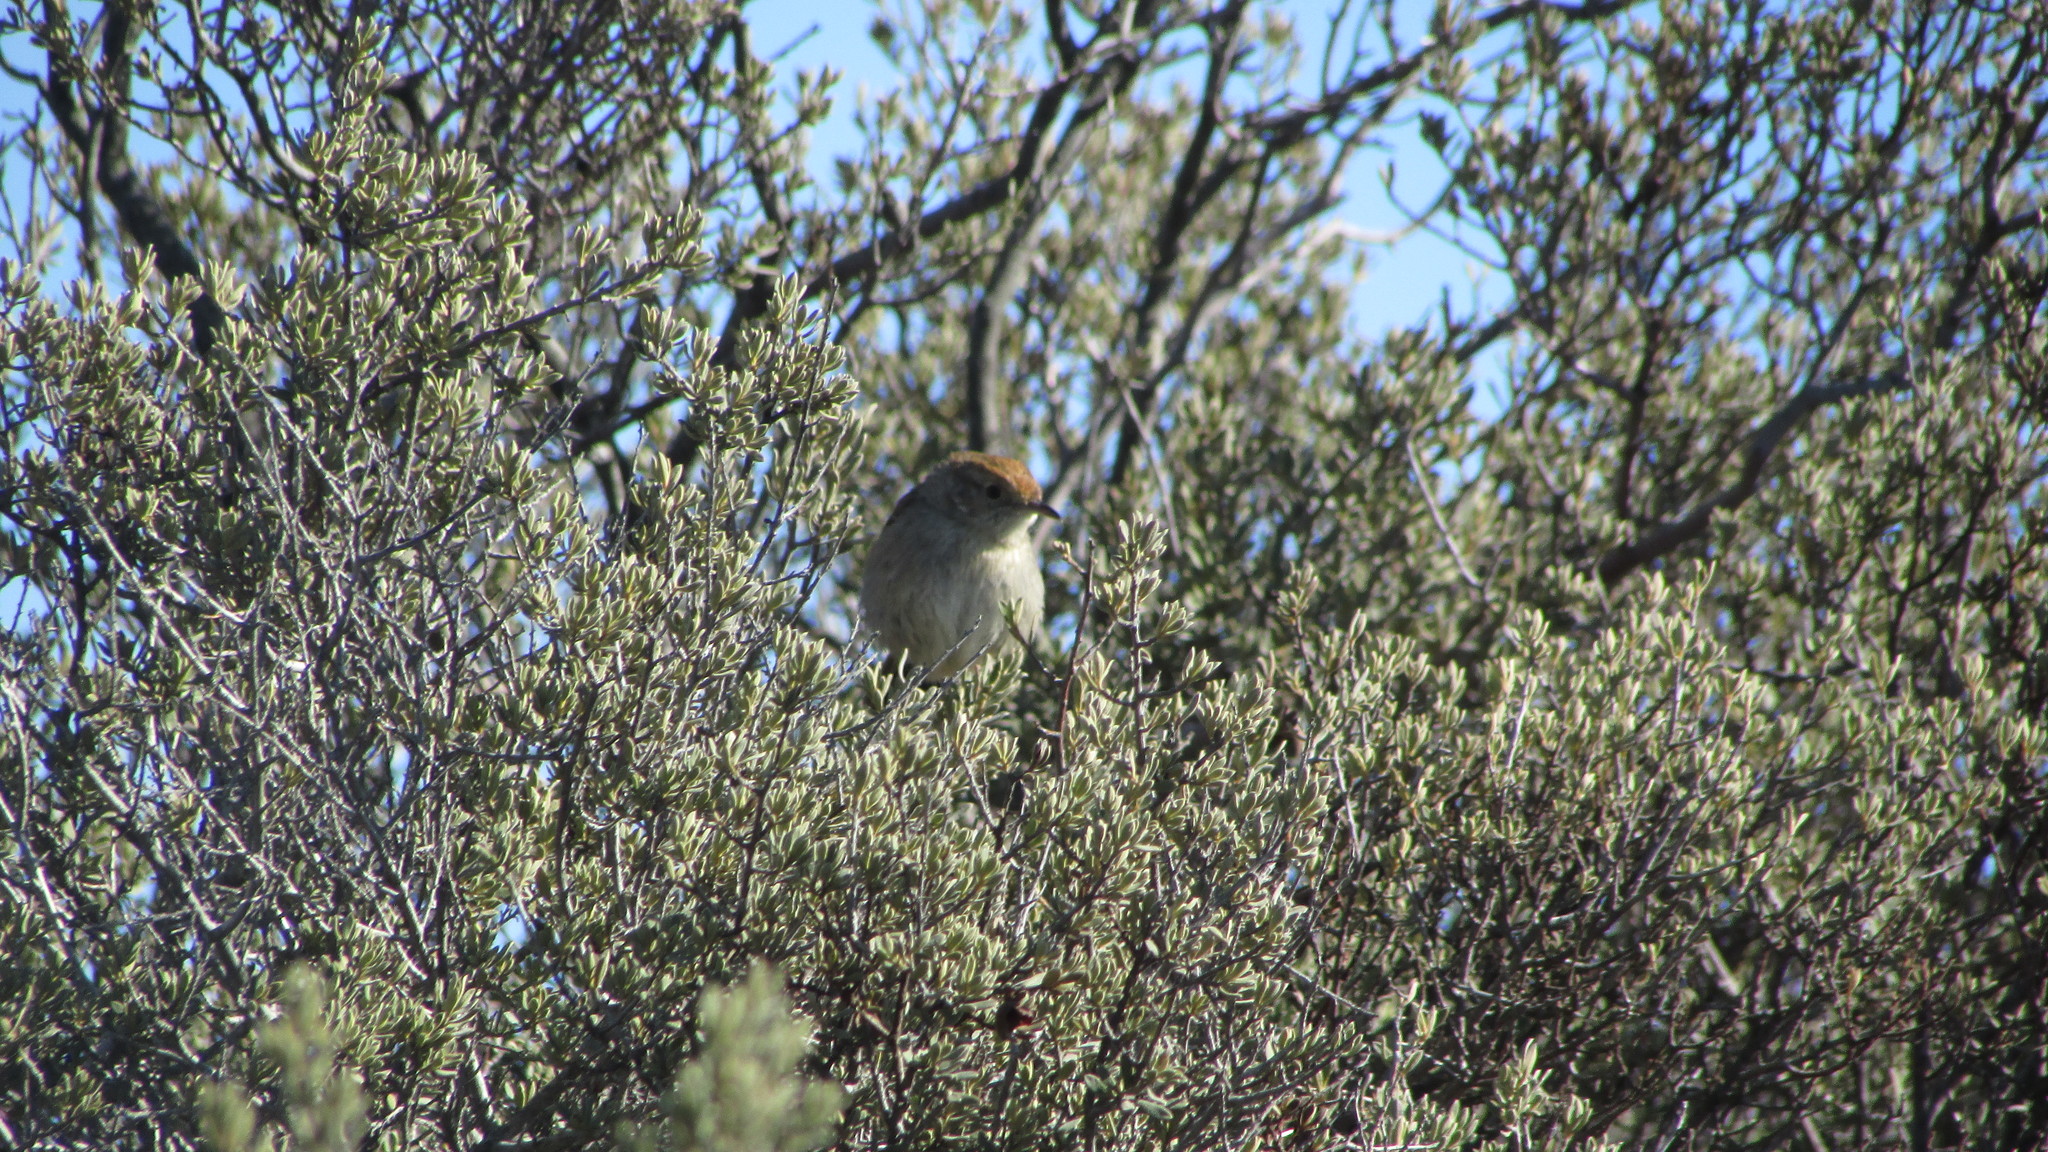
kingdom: Animalia
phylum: Chordata
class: Aves
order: Passeriformes
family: Cisticolidae
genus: Cisticola
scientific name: Cisticola subruficapilla
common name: Grey-backed cisticola
